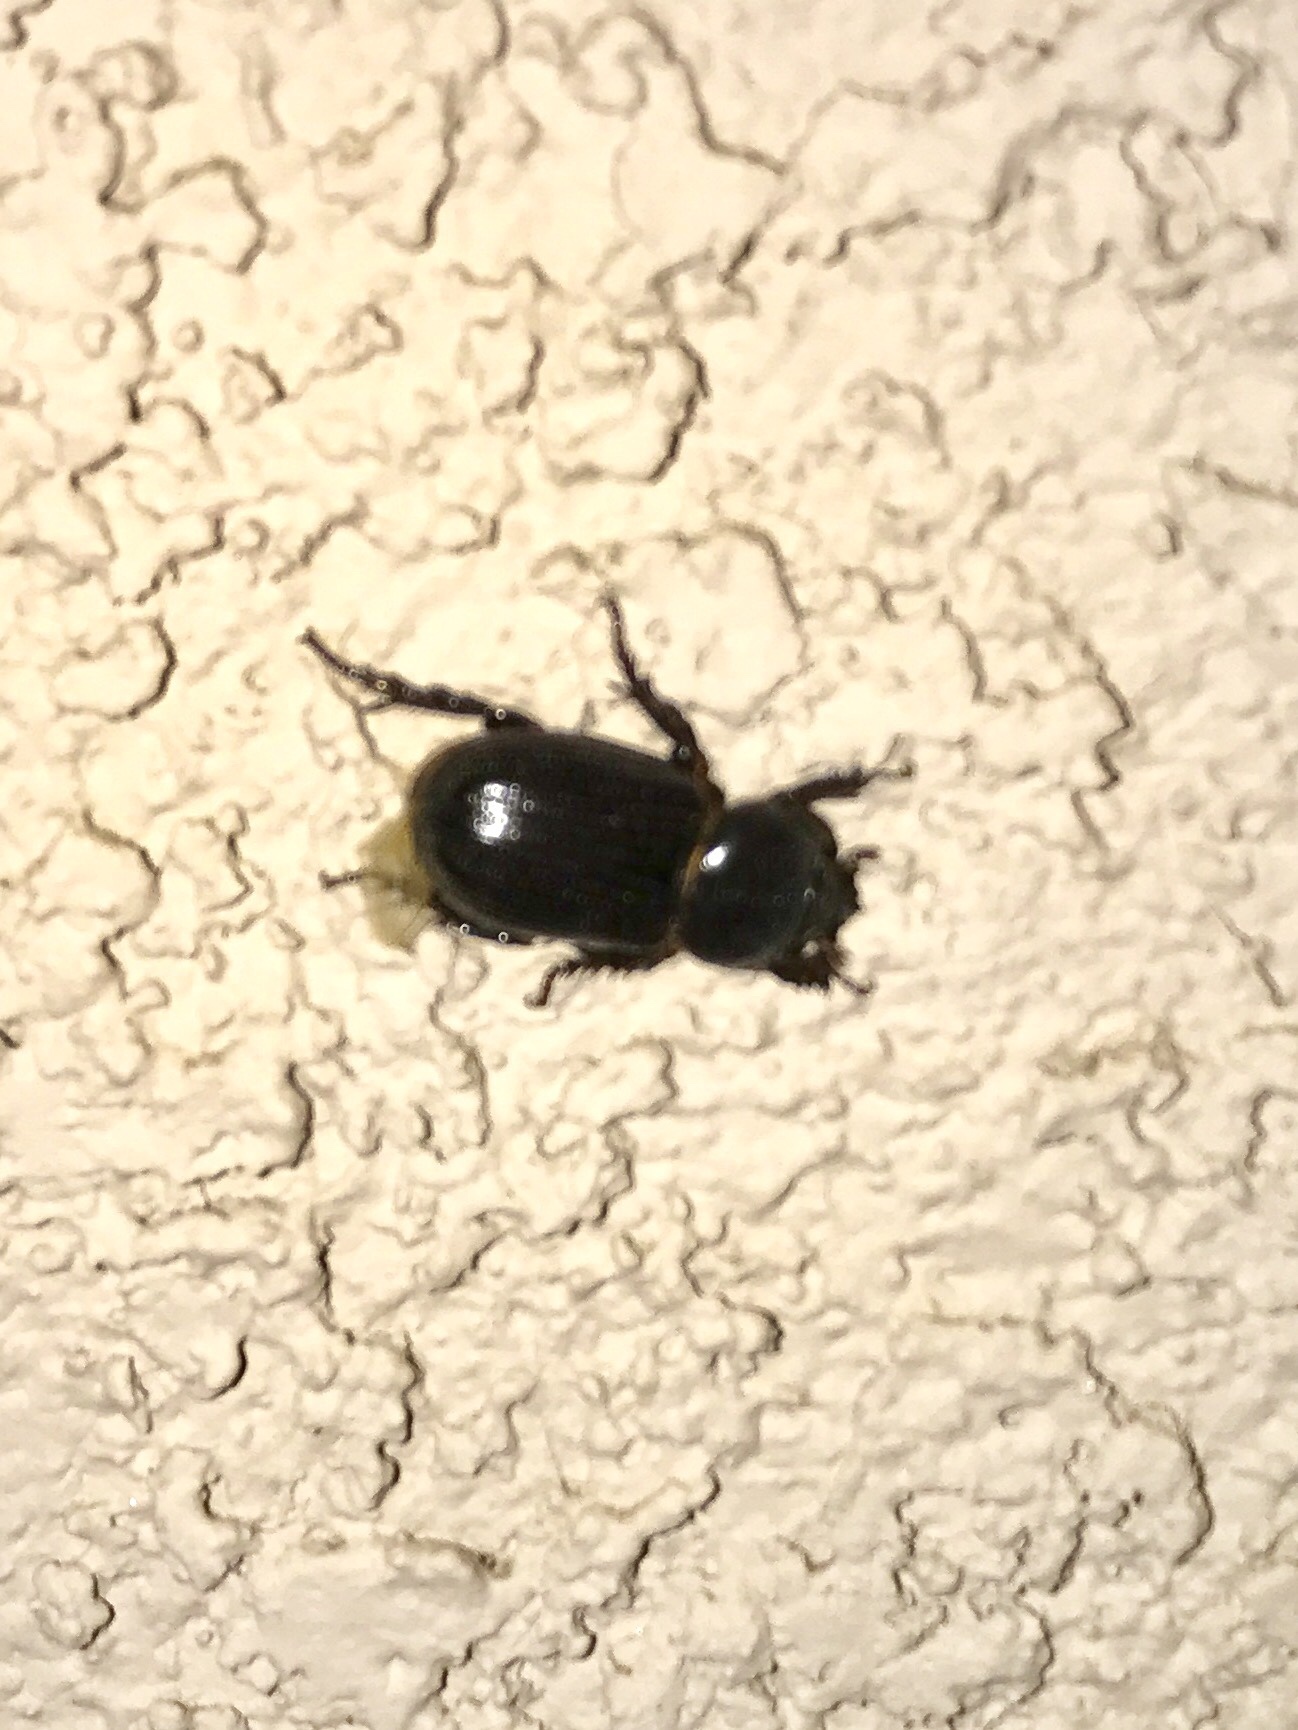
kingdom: Animalia
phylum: Arthropoda
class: Insecta
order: Coleoptera
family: Scarabaeidae
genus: Hemiphileurus
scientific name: Hemiphileurus illatus
